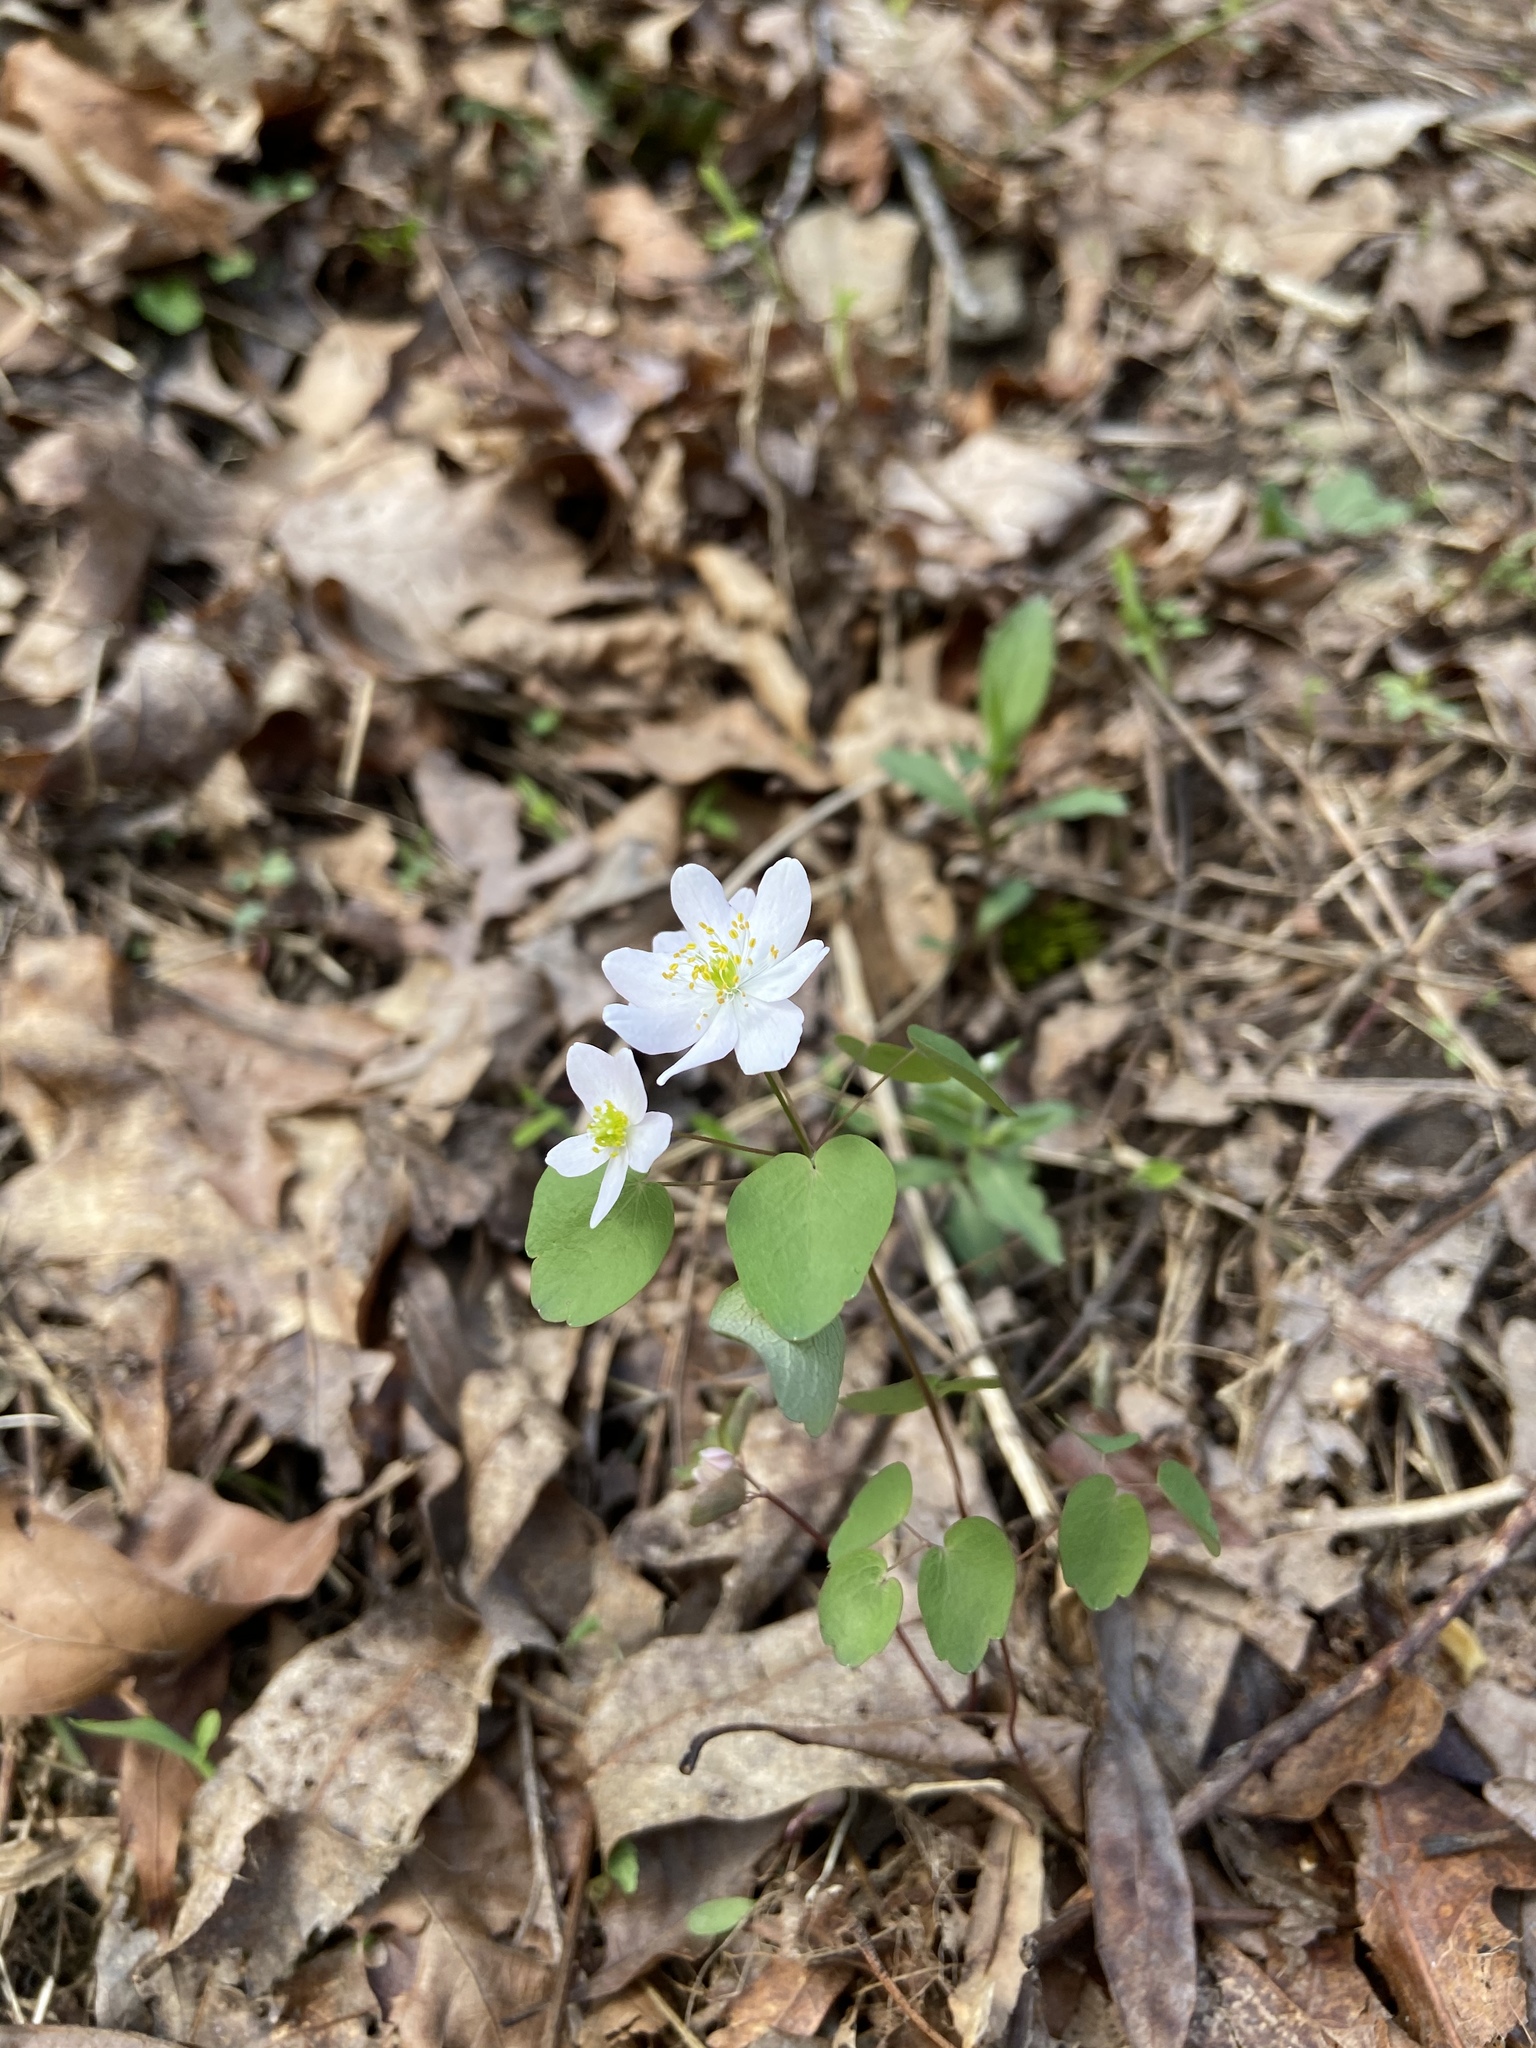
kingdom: Plantae
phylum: Tracheophyta
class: Magnoliopsida
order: Ranunculales
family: Ranunculaceae
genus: Thalictrum
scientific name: Thalictrum thalictroides
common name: Rue-anemone
